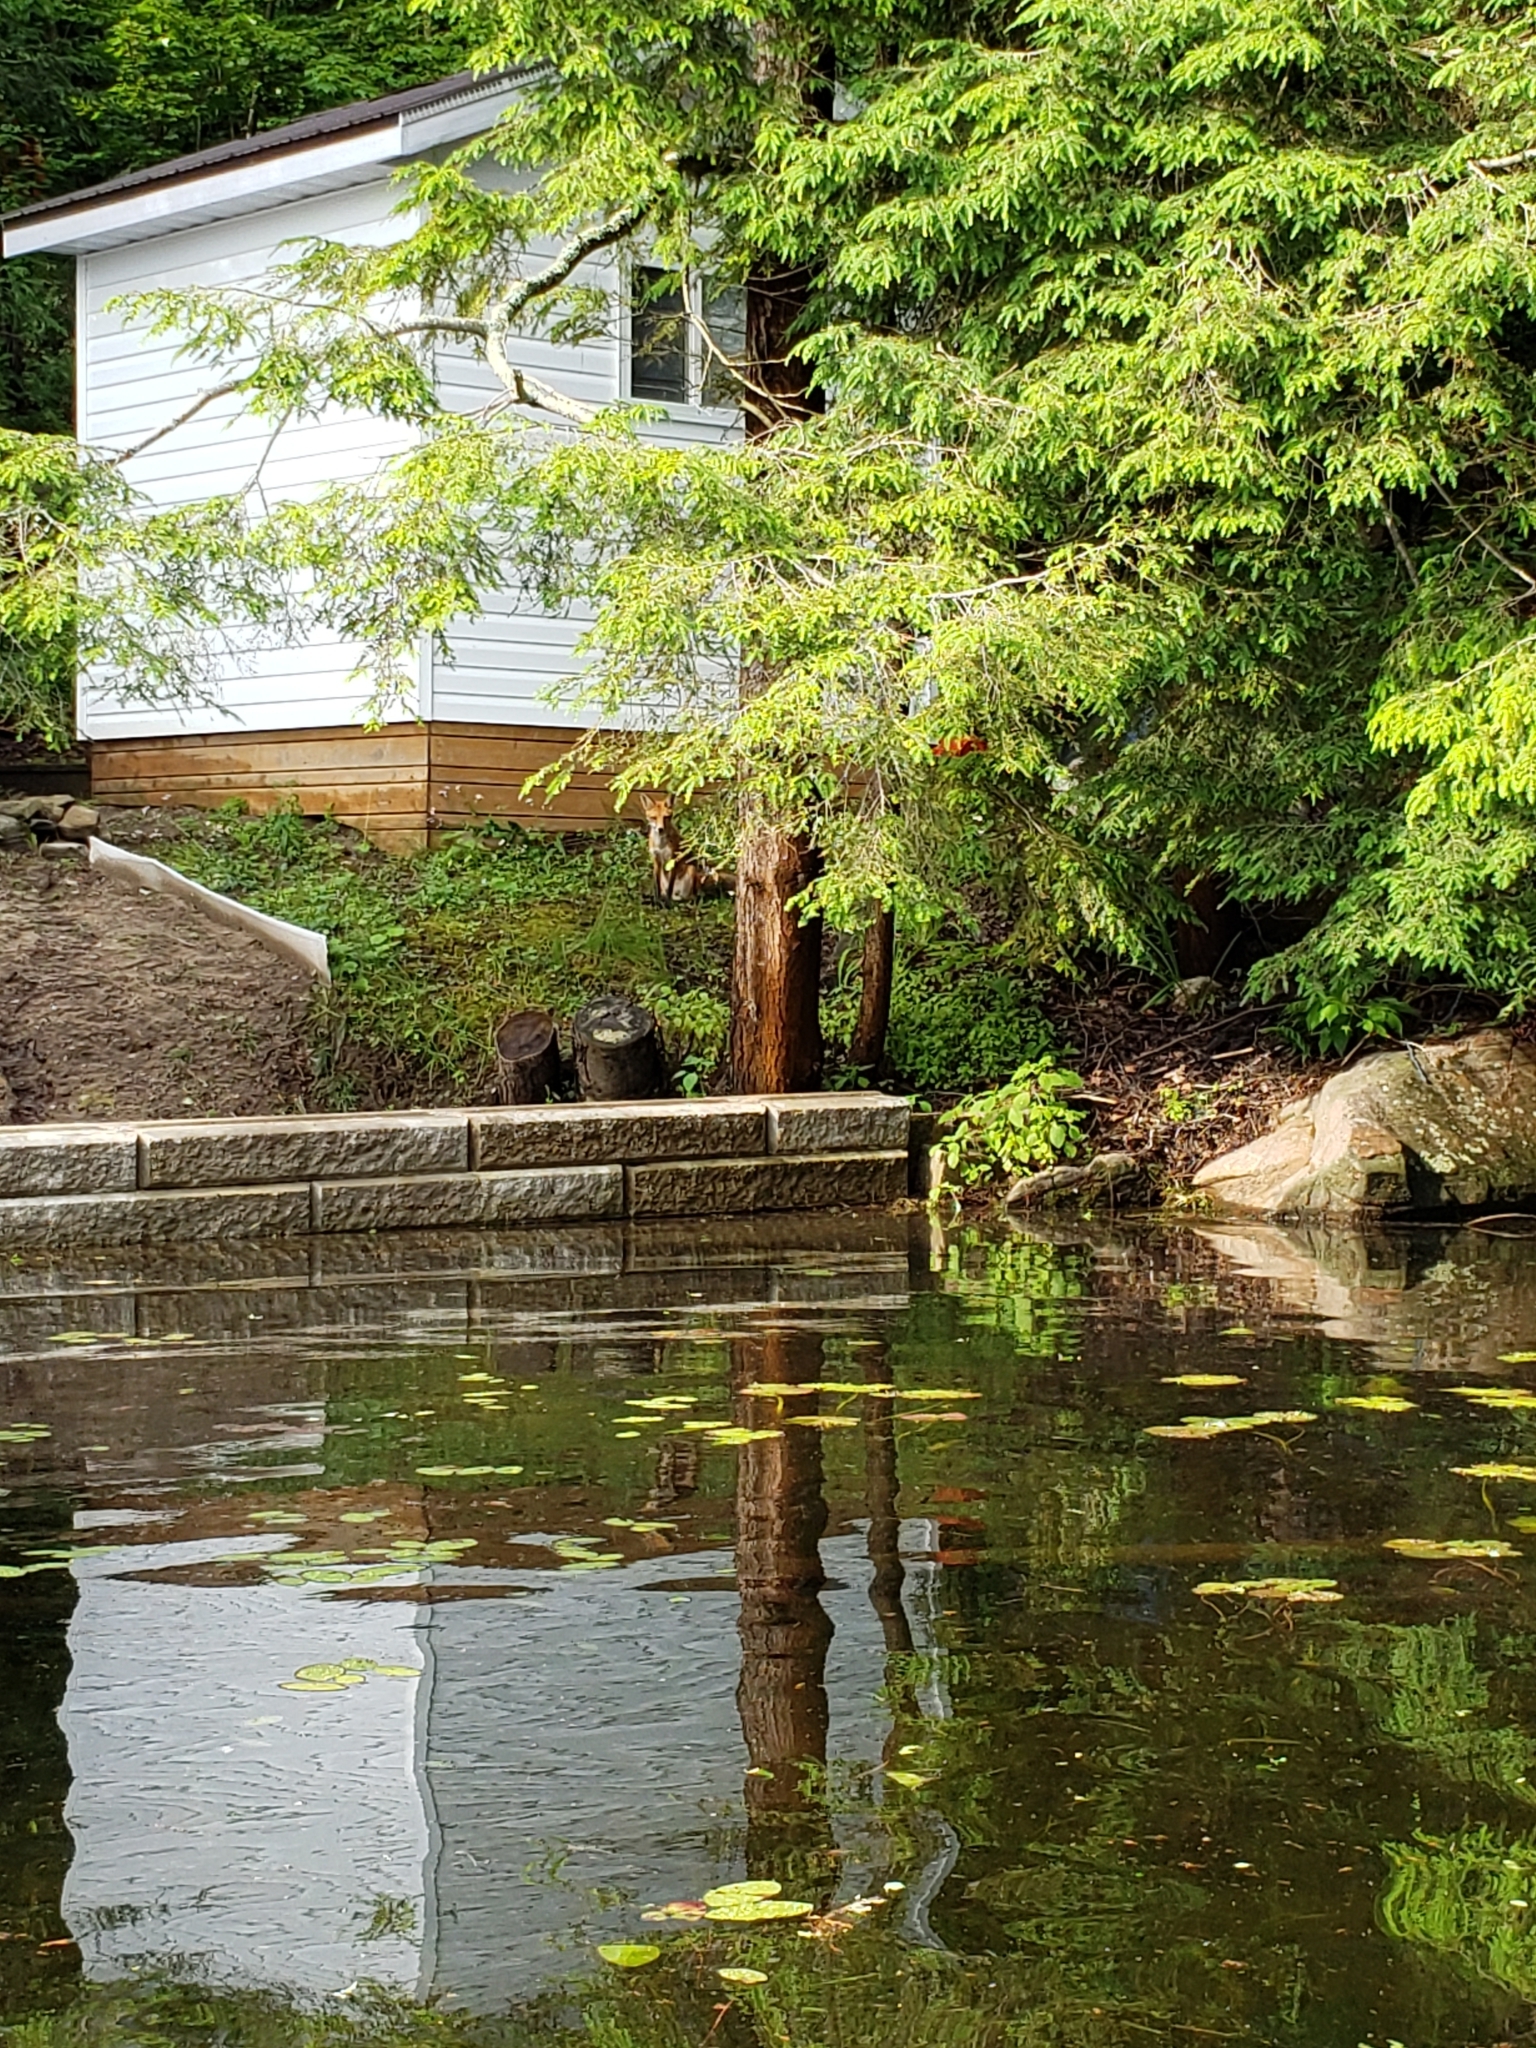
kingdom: Animalia
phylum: Chordata
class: Mammalia
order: Carnivora
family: Canidae
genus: Vulpes
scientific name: Vulpes vulpes
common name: Red fox
